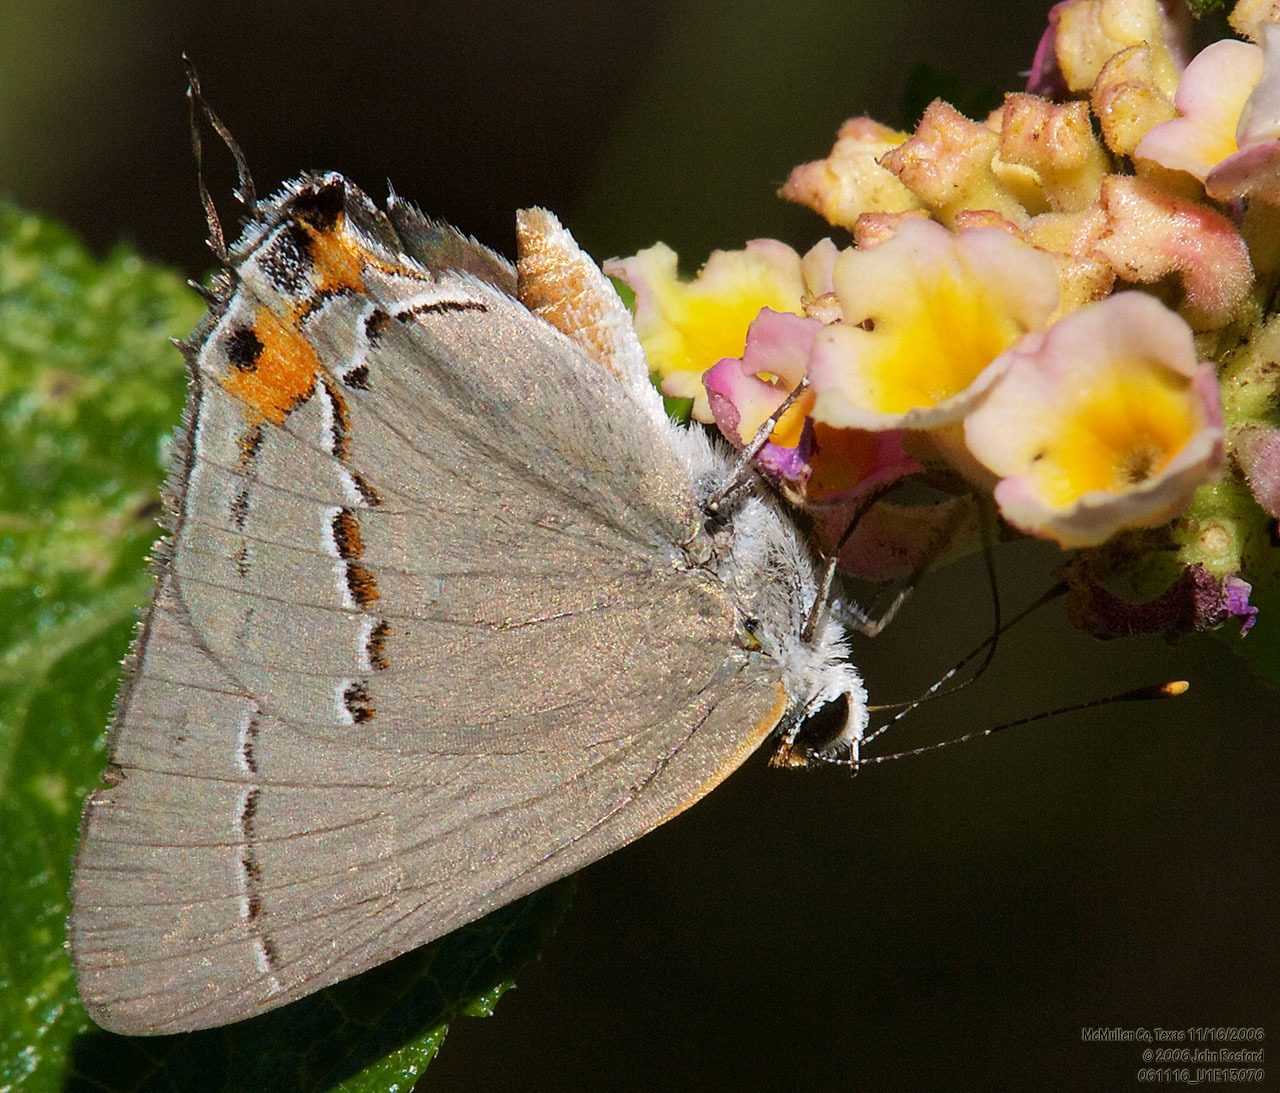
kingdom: Animalia
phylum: Arthropoda
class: Insecta
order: Lepidoptera
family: Lycaenidae
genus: Strymon
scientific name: Strymon melinus
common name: Gray hairstreak
